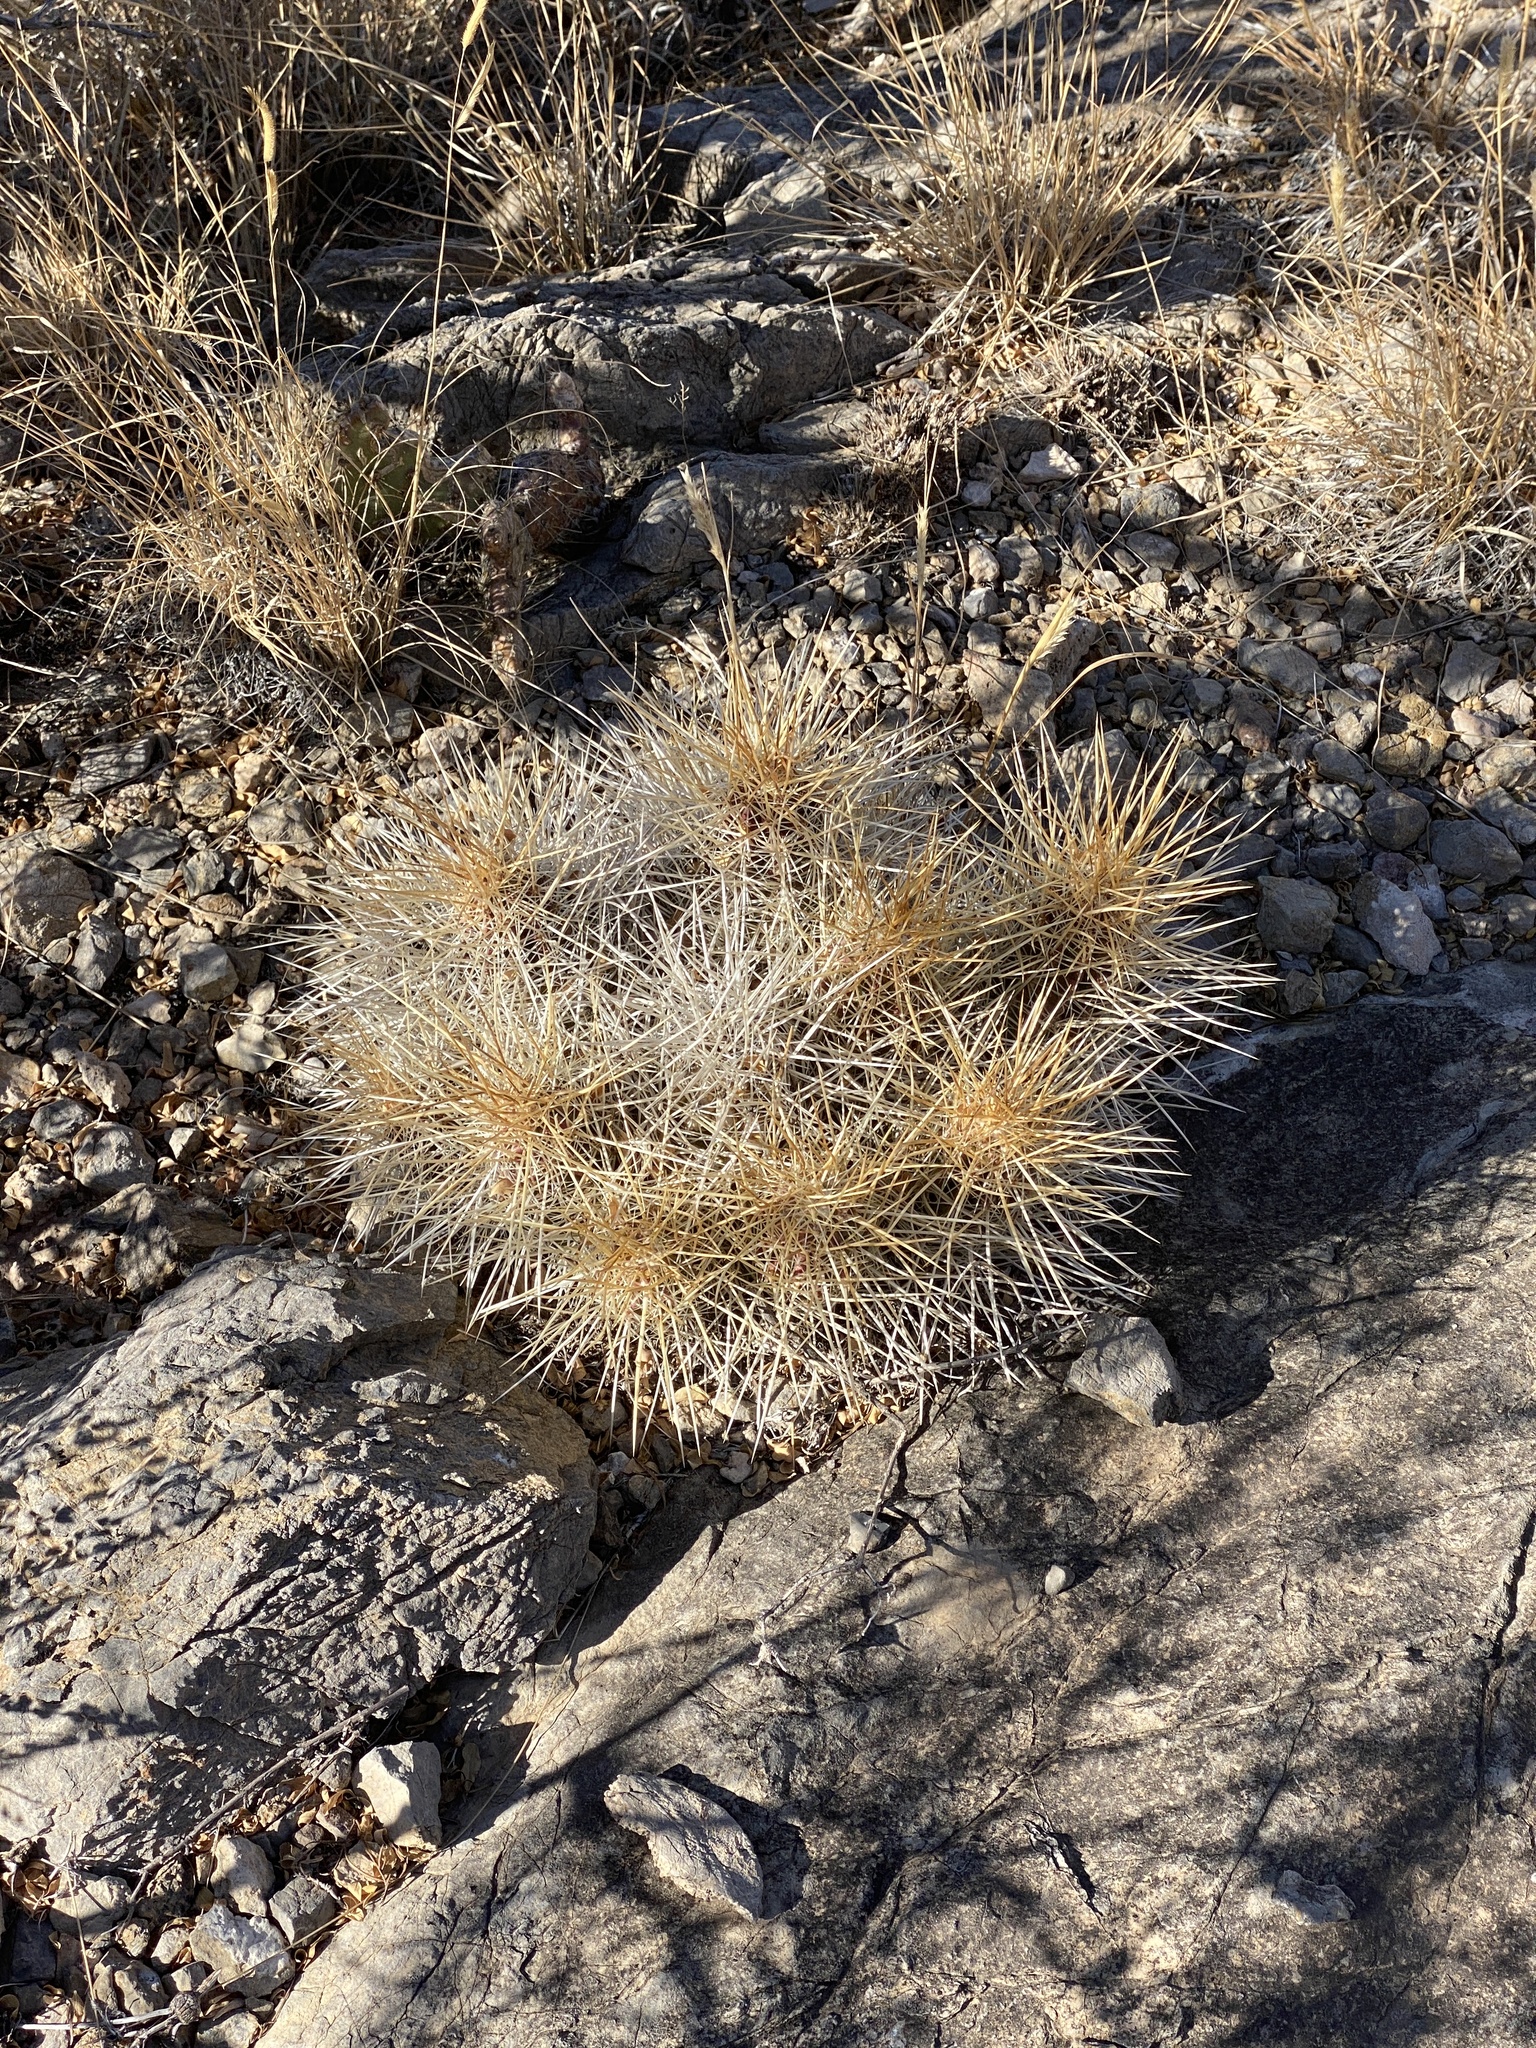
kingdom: Plantae
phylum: Tracheophyta
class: Magnoliopsida
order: Caryophyllales
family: Cactaceae
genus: Echinocereus
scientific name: Echinocereus stramineus
